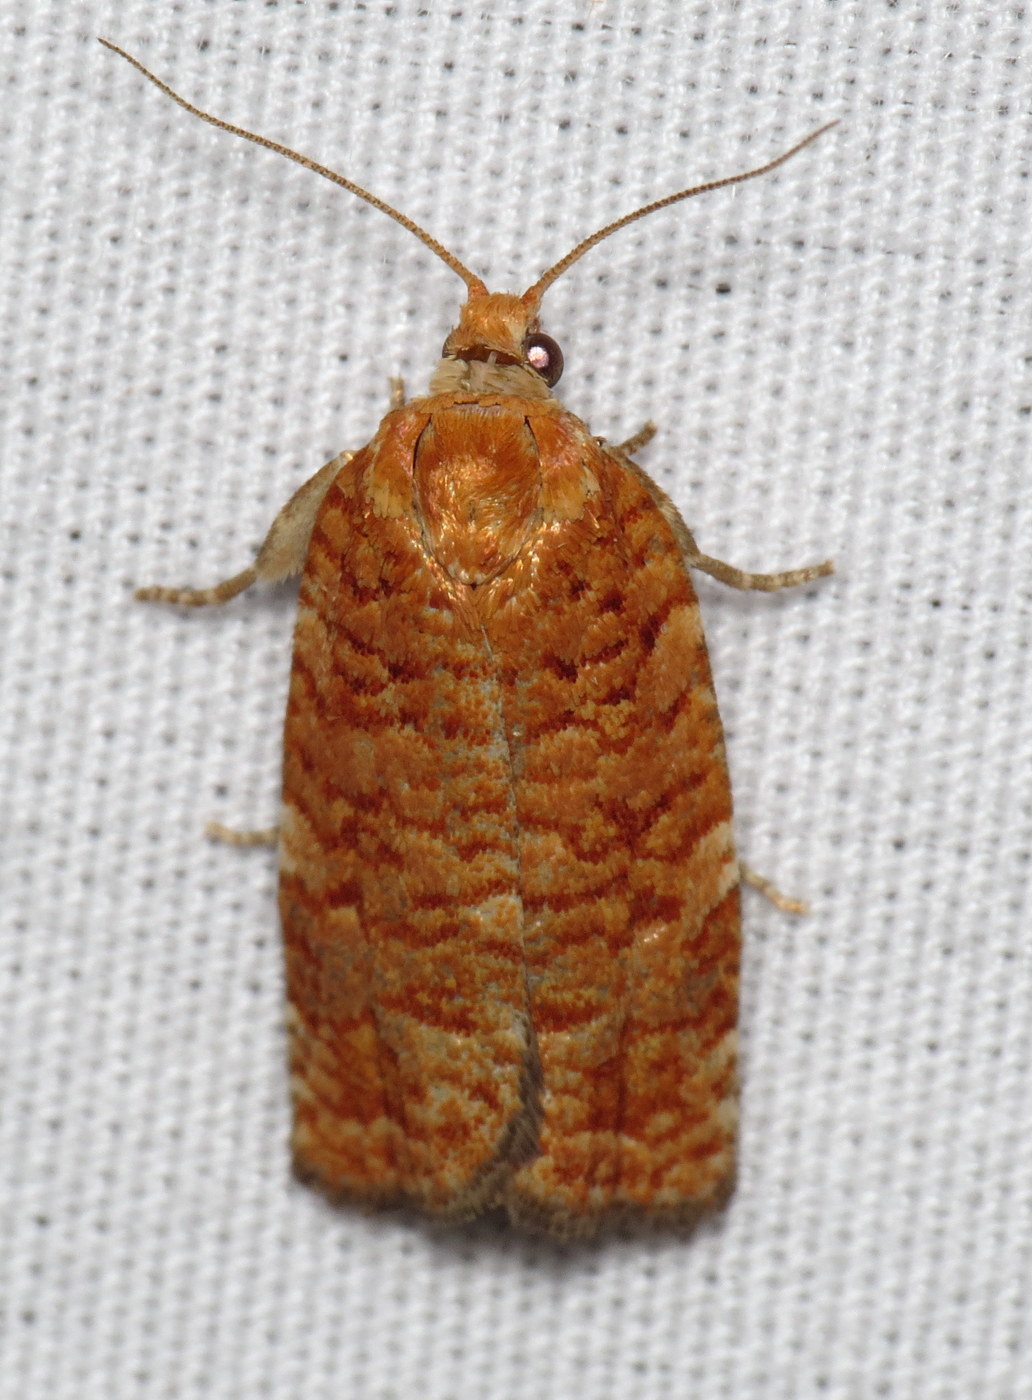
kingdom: Animalia
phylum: Arthropoda
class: Insecta
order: Lepidoptera
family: Tortricidae
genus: Choristoneura
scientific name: Choristoneura pinus
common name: Jack pine budworm
